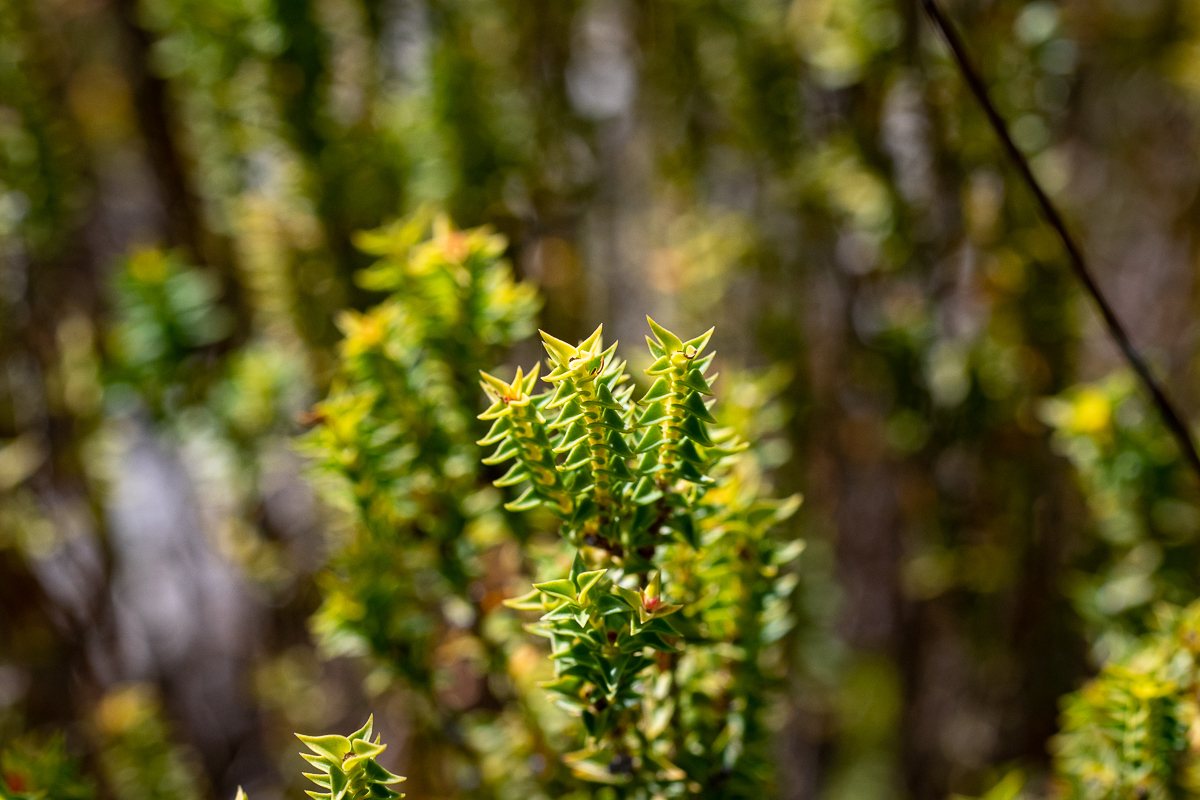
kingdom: Plantae
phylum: Tracheophyta
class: Magnoliopsida
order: Myrtales
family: Penaeaceae
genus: Penaea
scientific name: Penaea mucronata
